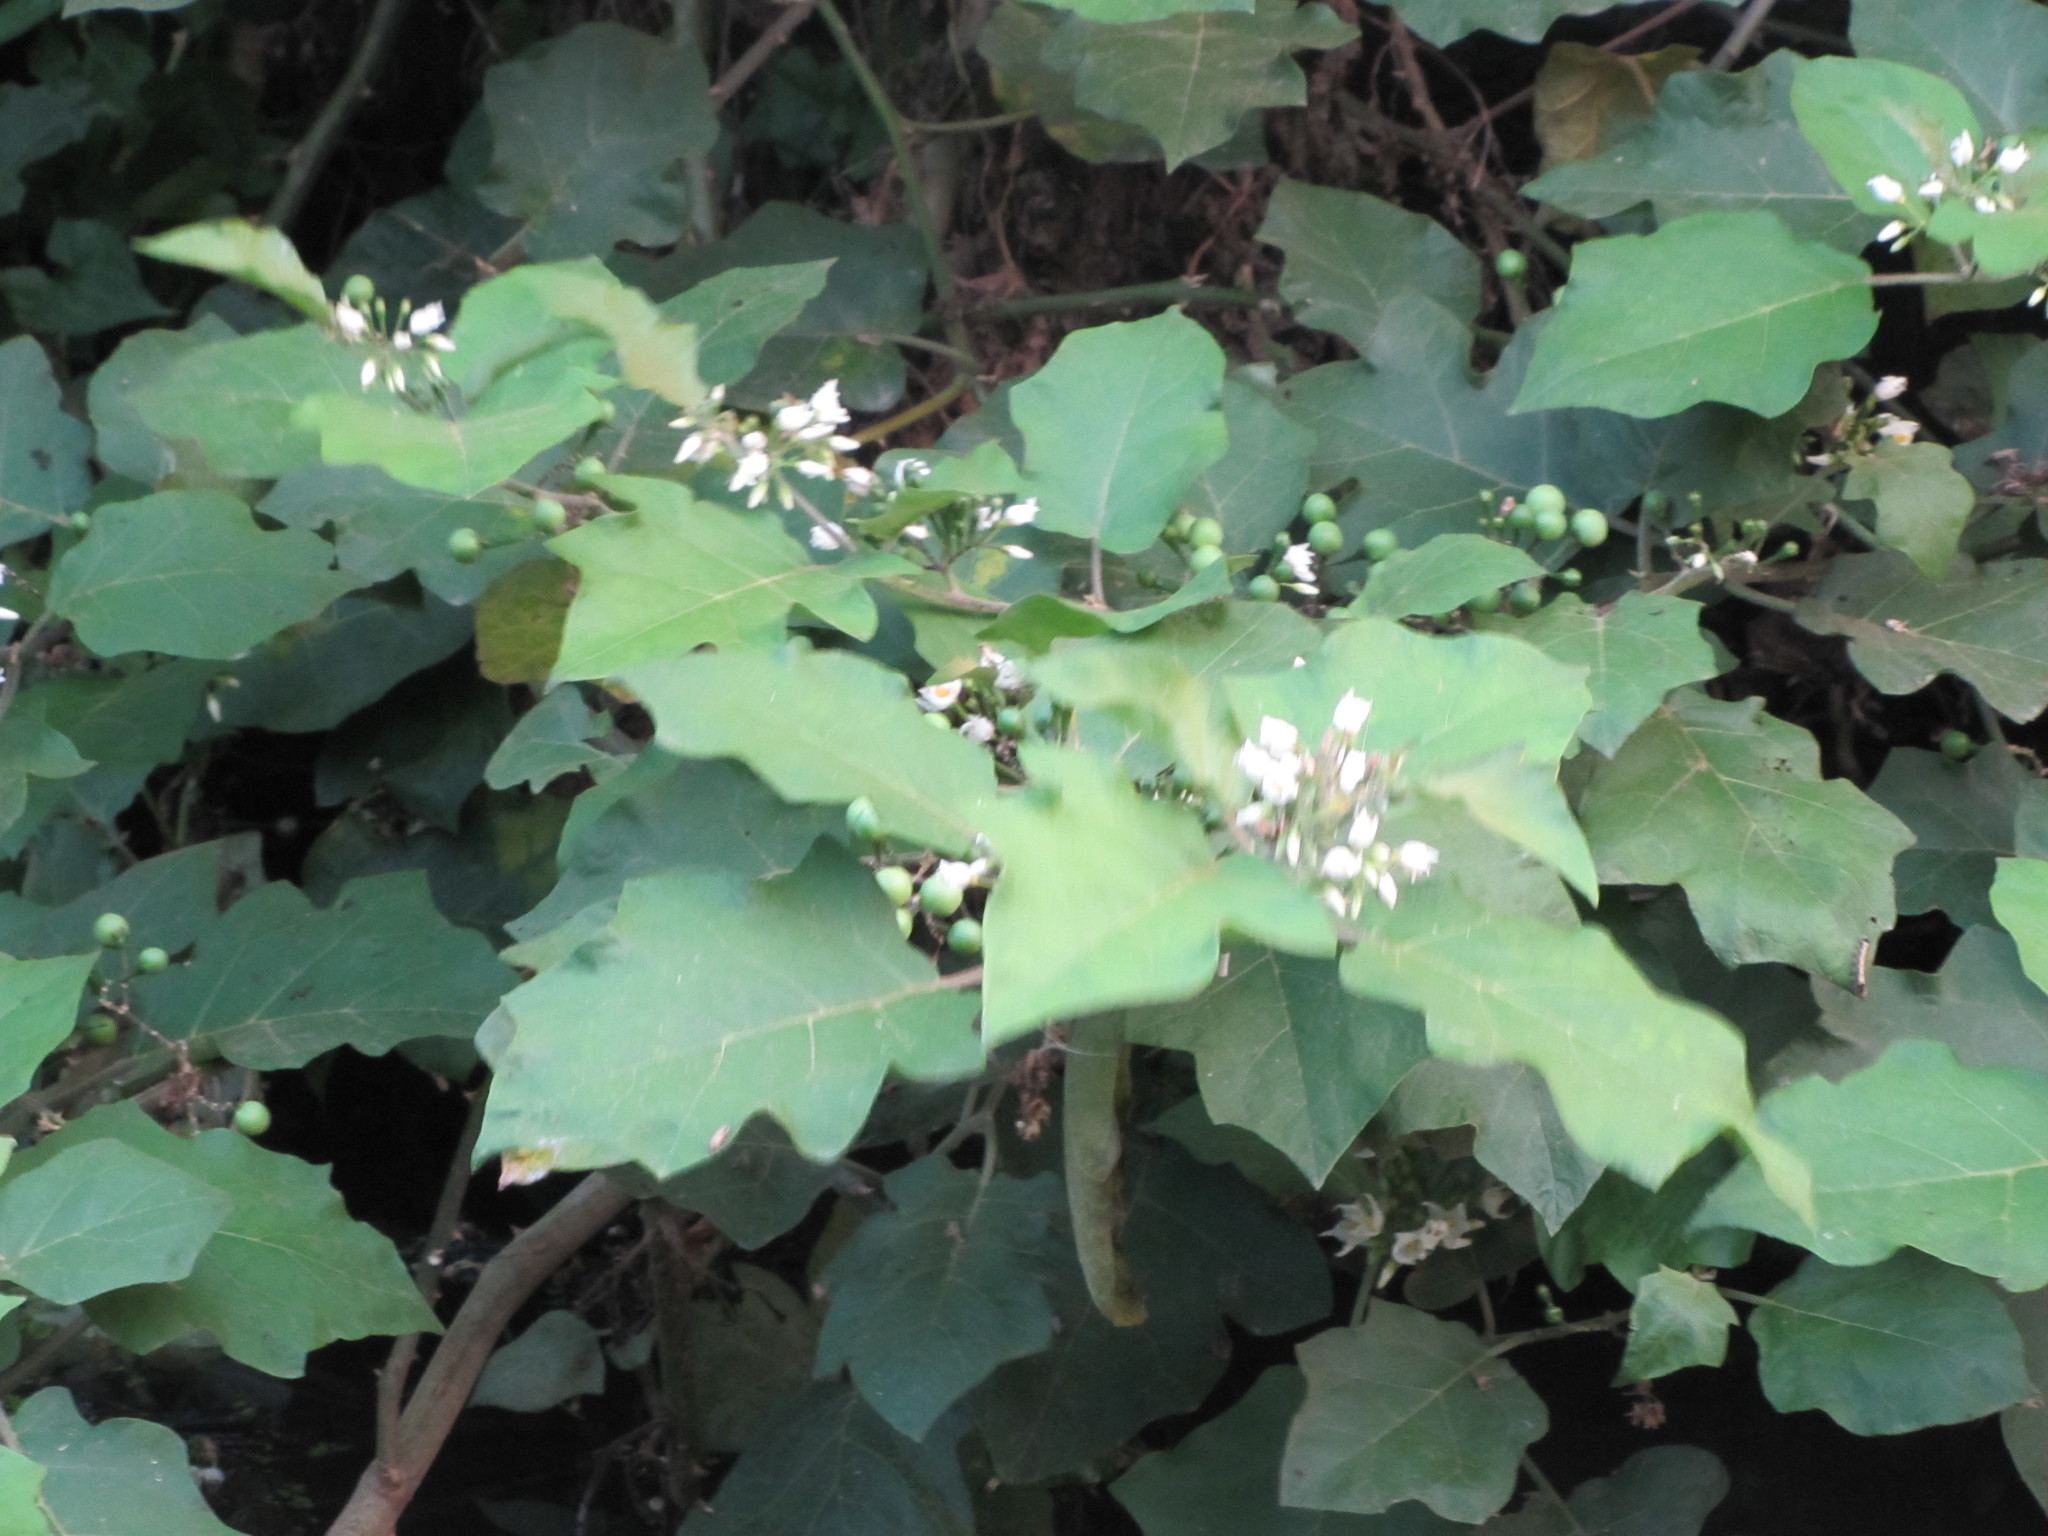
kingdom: Plantae
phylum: Tracheophyta
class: Magnoliopsida
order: Solanales
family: Solanaceae
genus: Solanum
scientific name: Solanum torvum
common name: Turkey berry
